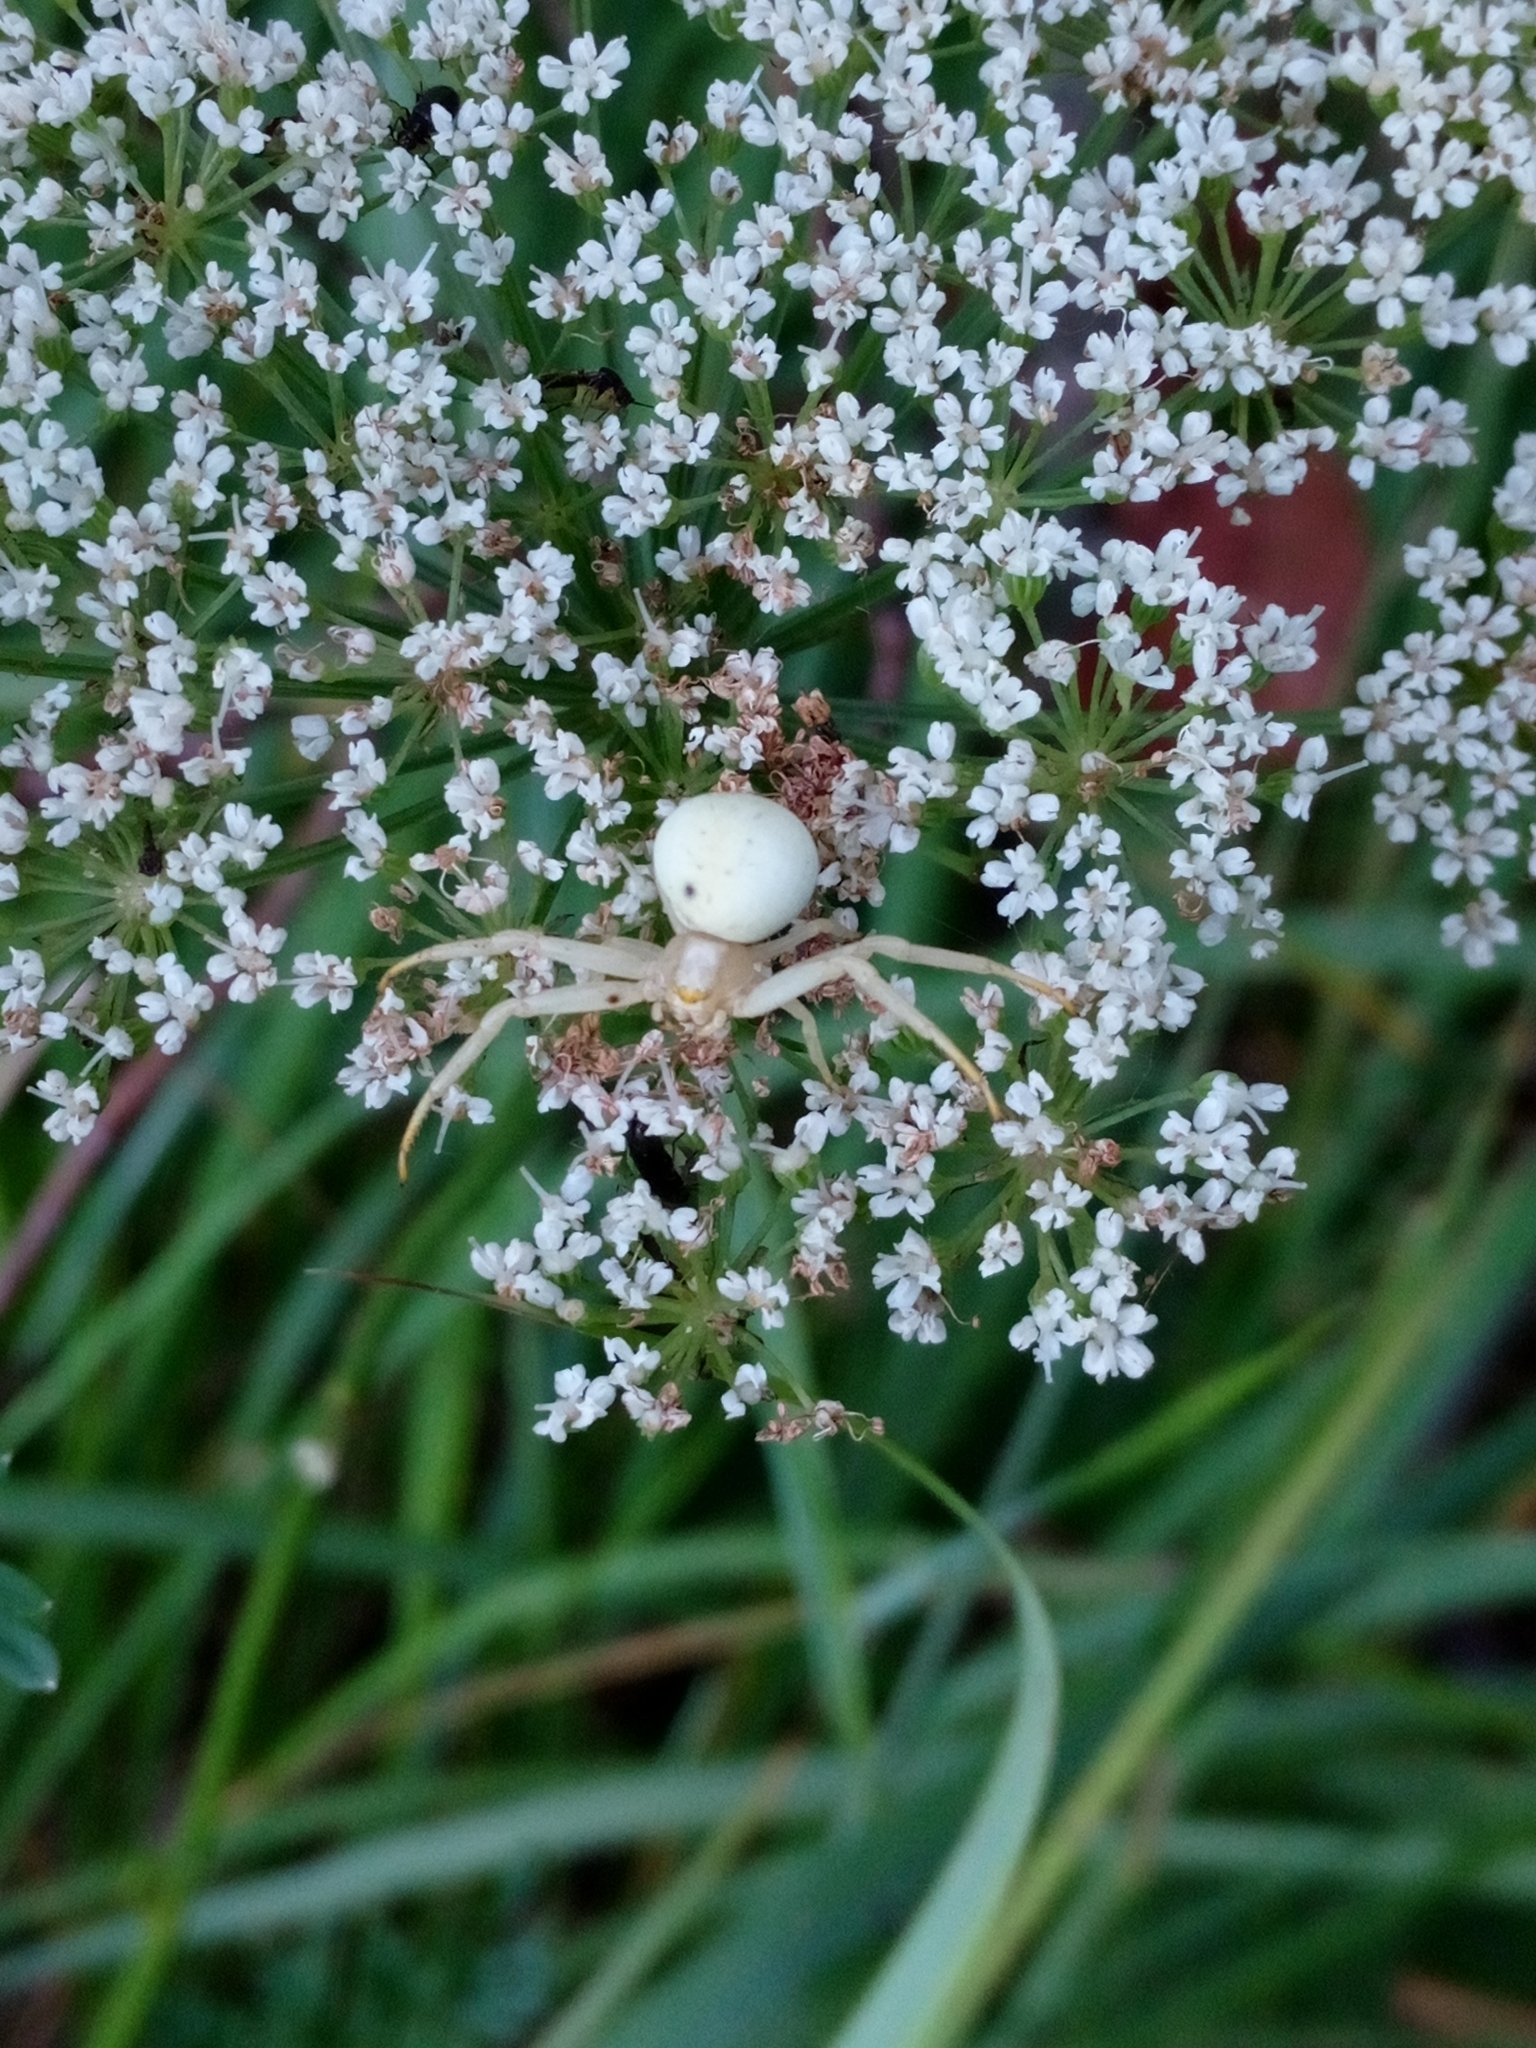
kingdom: Animalia
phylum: Arthropoda
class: Arachnida
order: Araneae
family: Thomisidae
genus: Misumena
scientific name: Misumena vatia
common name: Goldenrod crab spider
